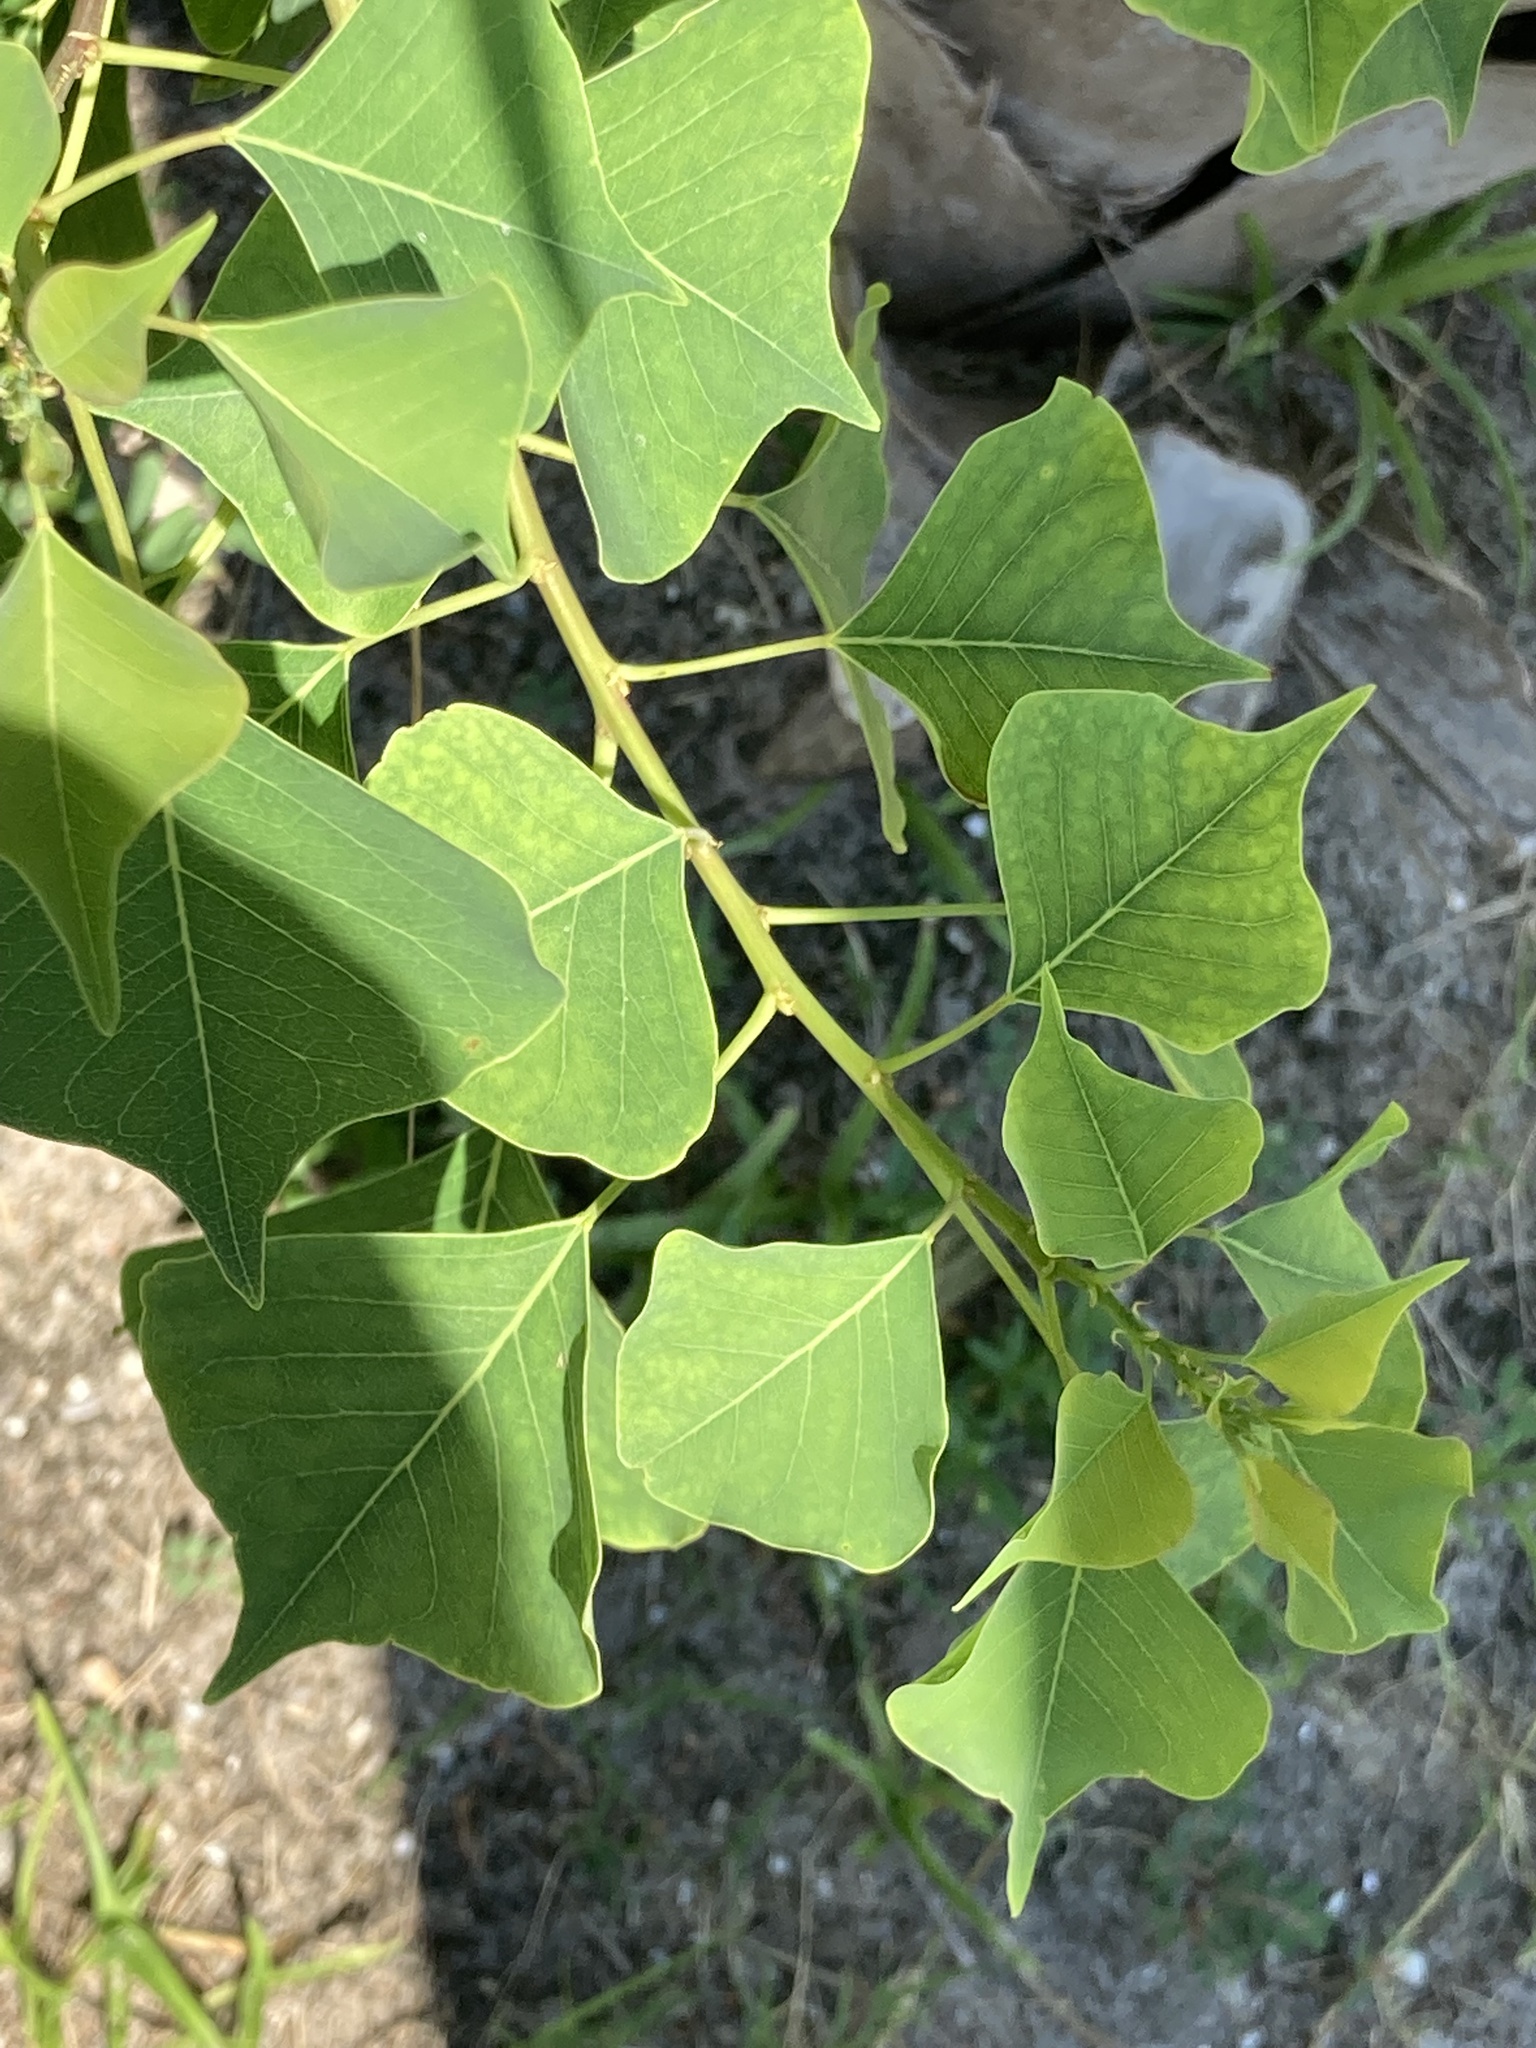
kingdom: Plantae
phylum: Tracheophyta
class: Magnoliopsida
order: Malpighiales
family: Euphorbiaceae
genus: Triadica
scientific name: Triadica sebifera
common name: Chinese tallow
